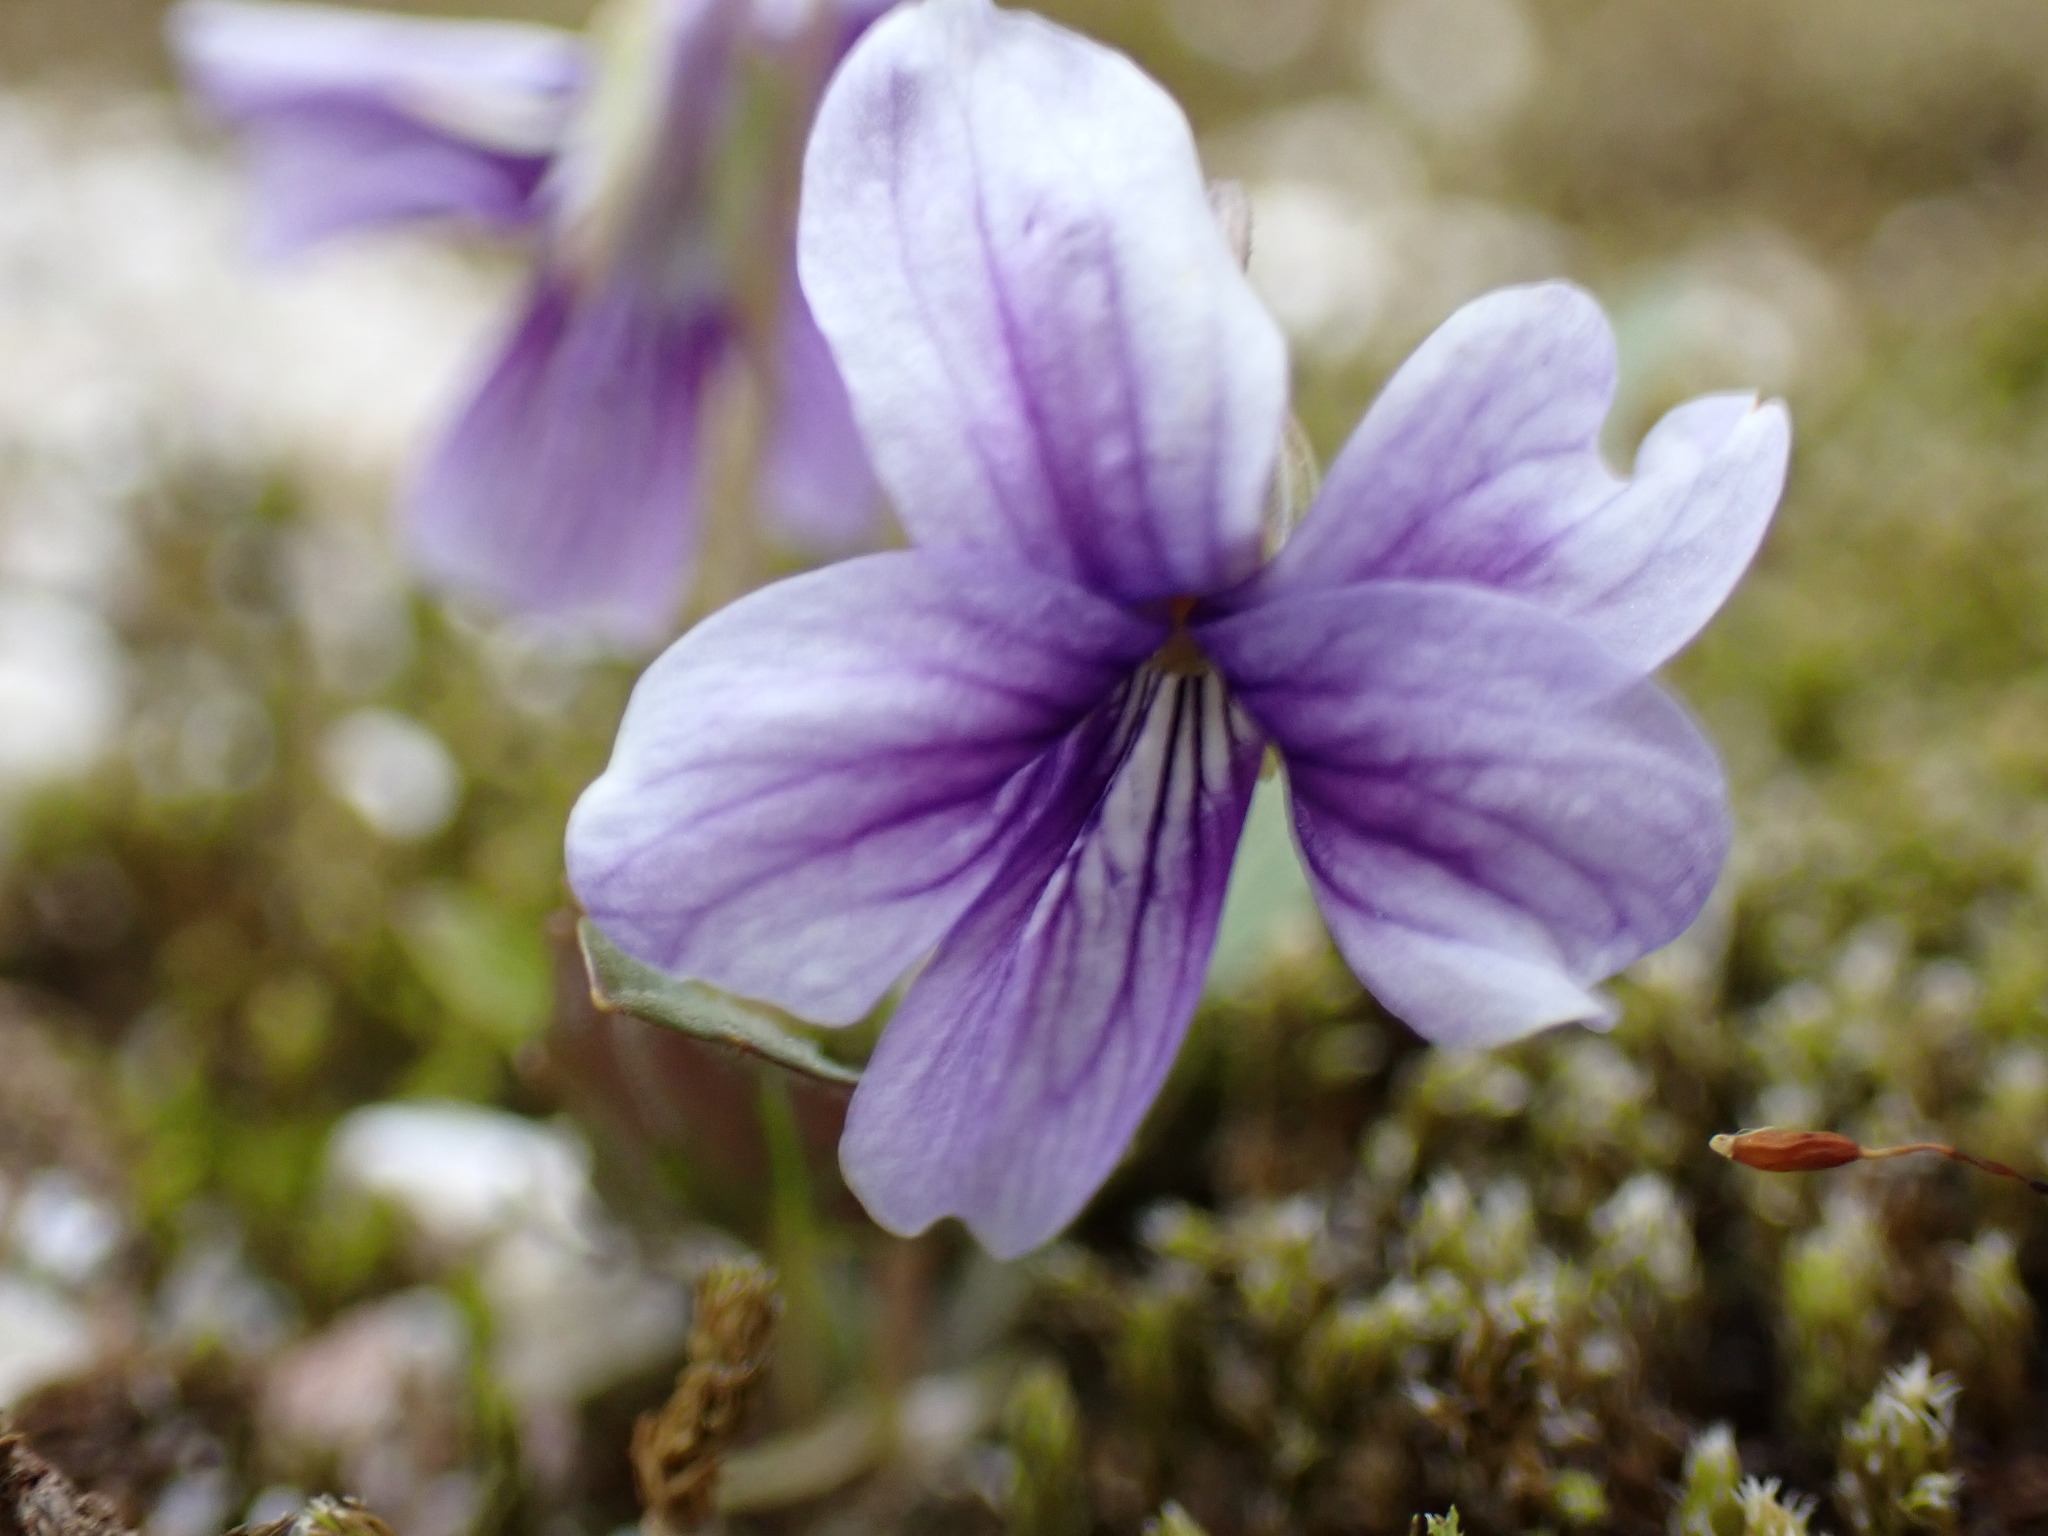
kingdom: Plantae
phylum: Tracheophyta
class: Magnoliopsida
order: Malpighiales
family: Violaceae
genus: Viola
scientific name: Viola philippica
